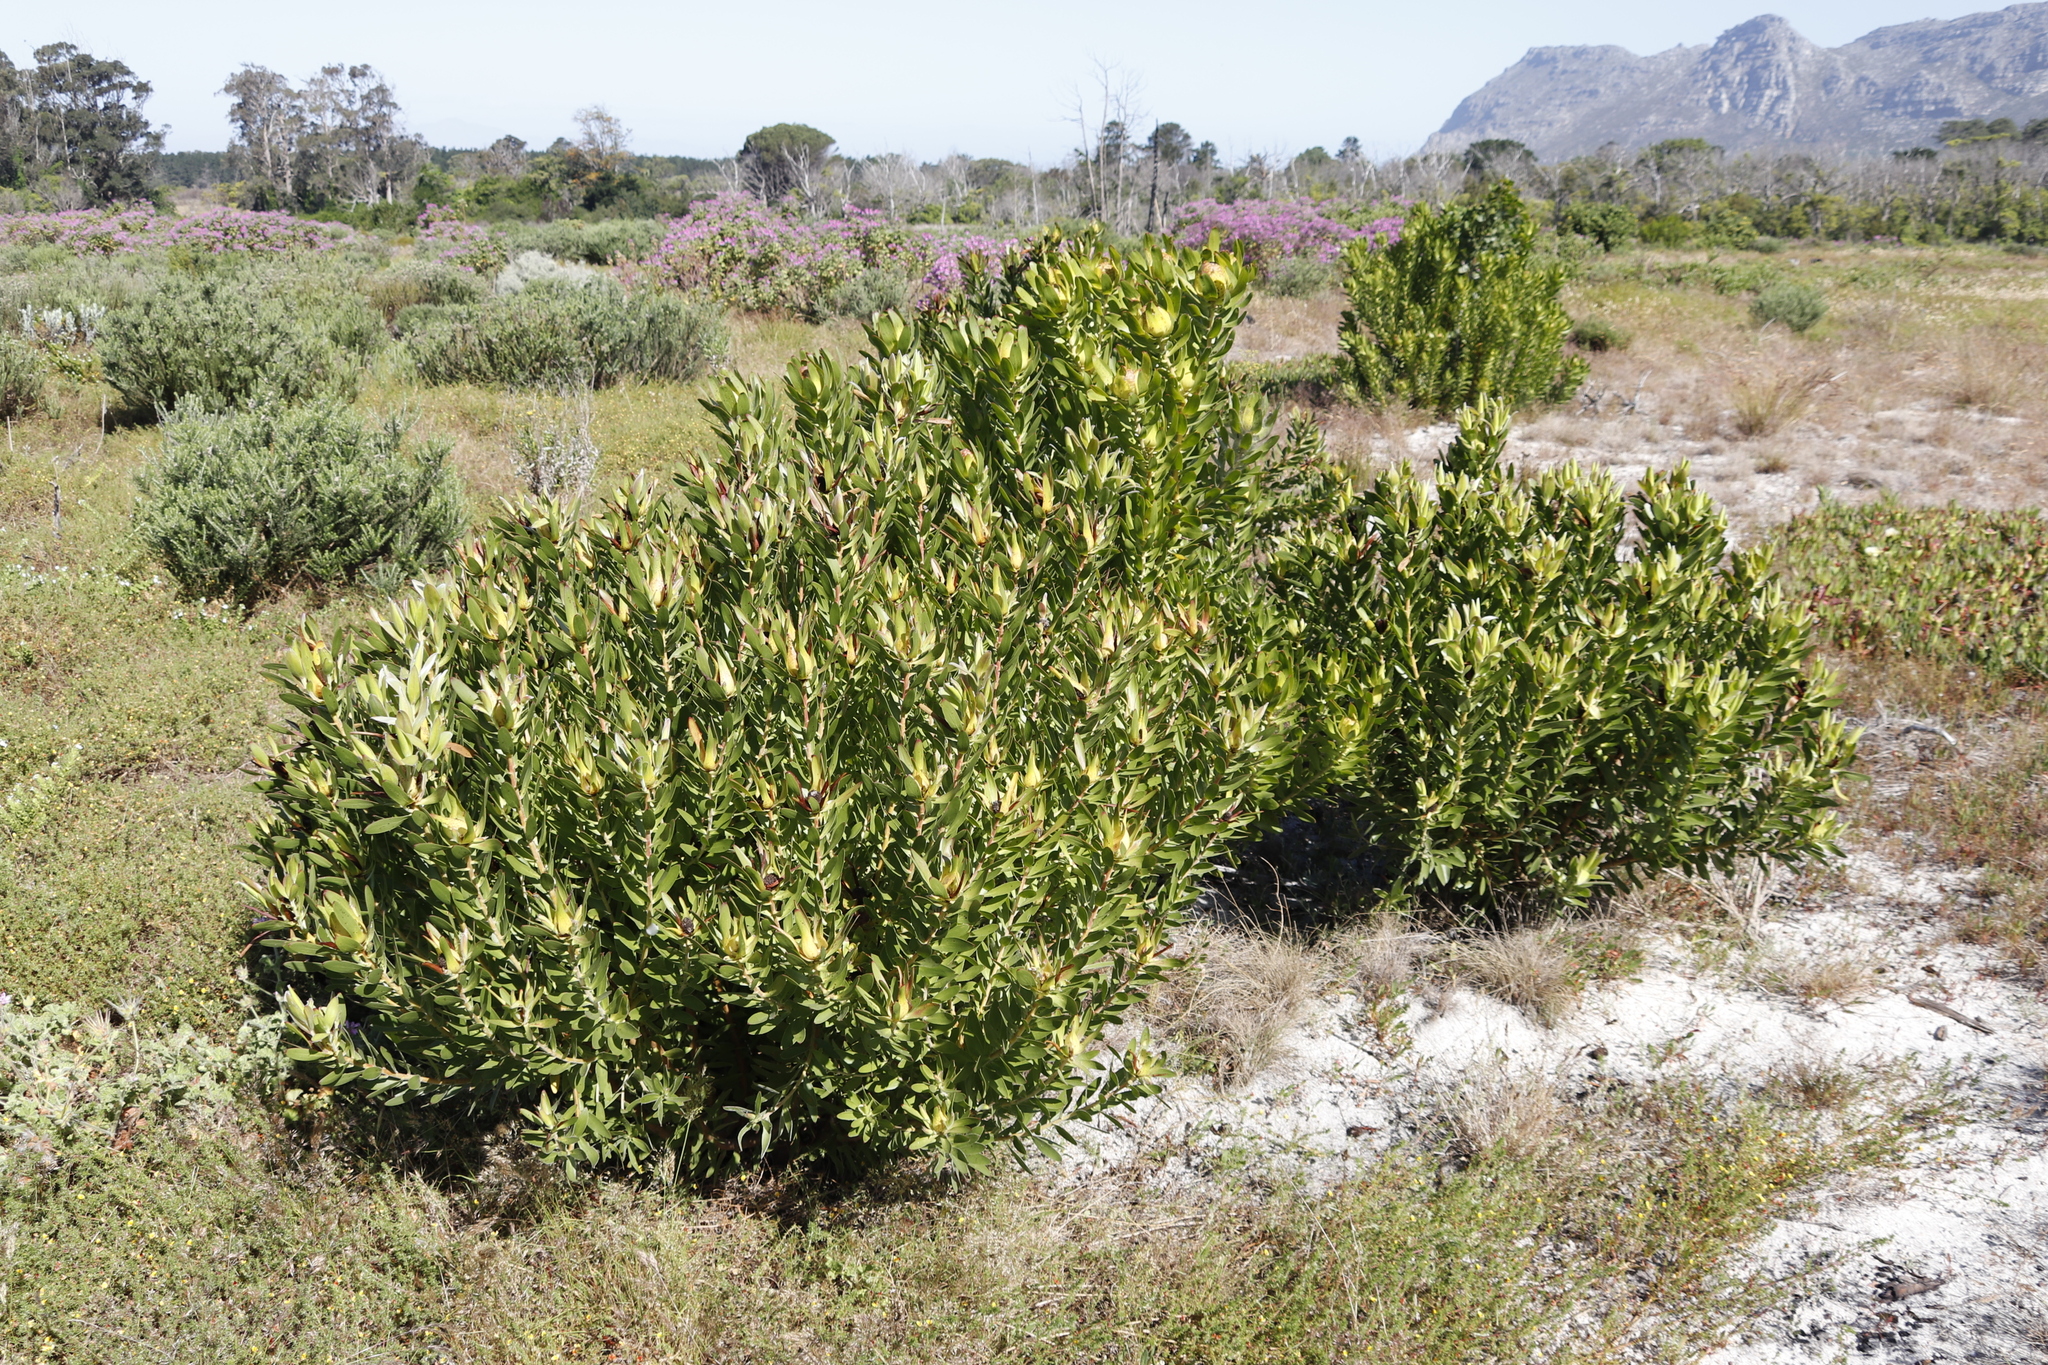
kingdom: Plantae
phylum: Tracheophyta
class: Magnoliopsida
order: Proteales
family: Proteaceae
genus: Leucadendron
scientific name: Leucadendron laureolum
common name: Golden sunshinebush
